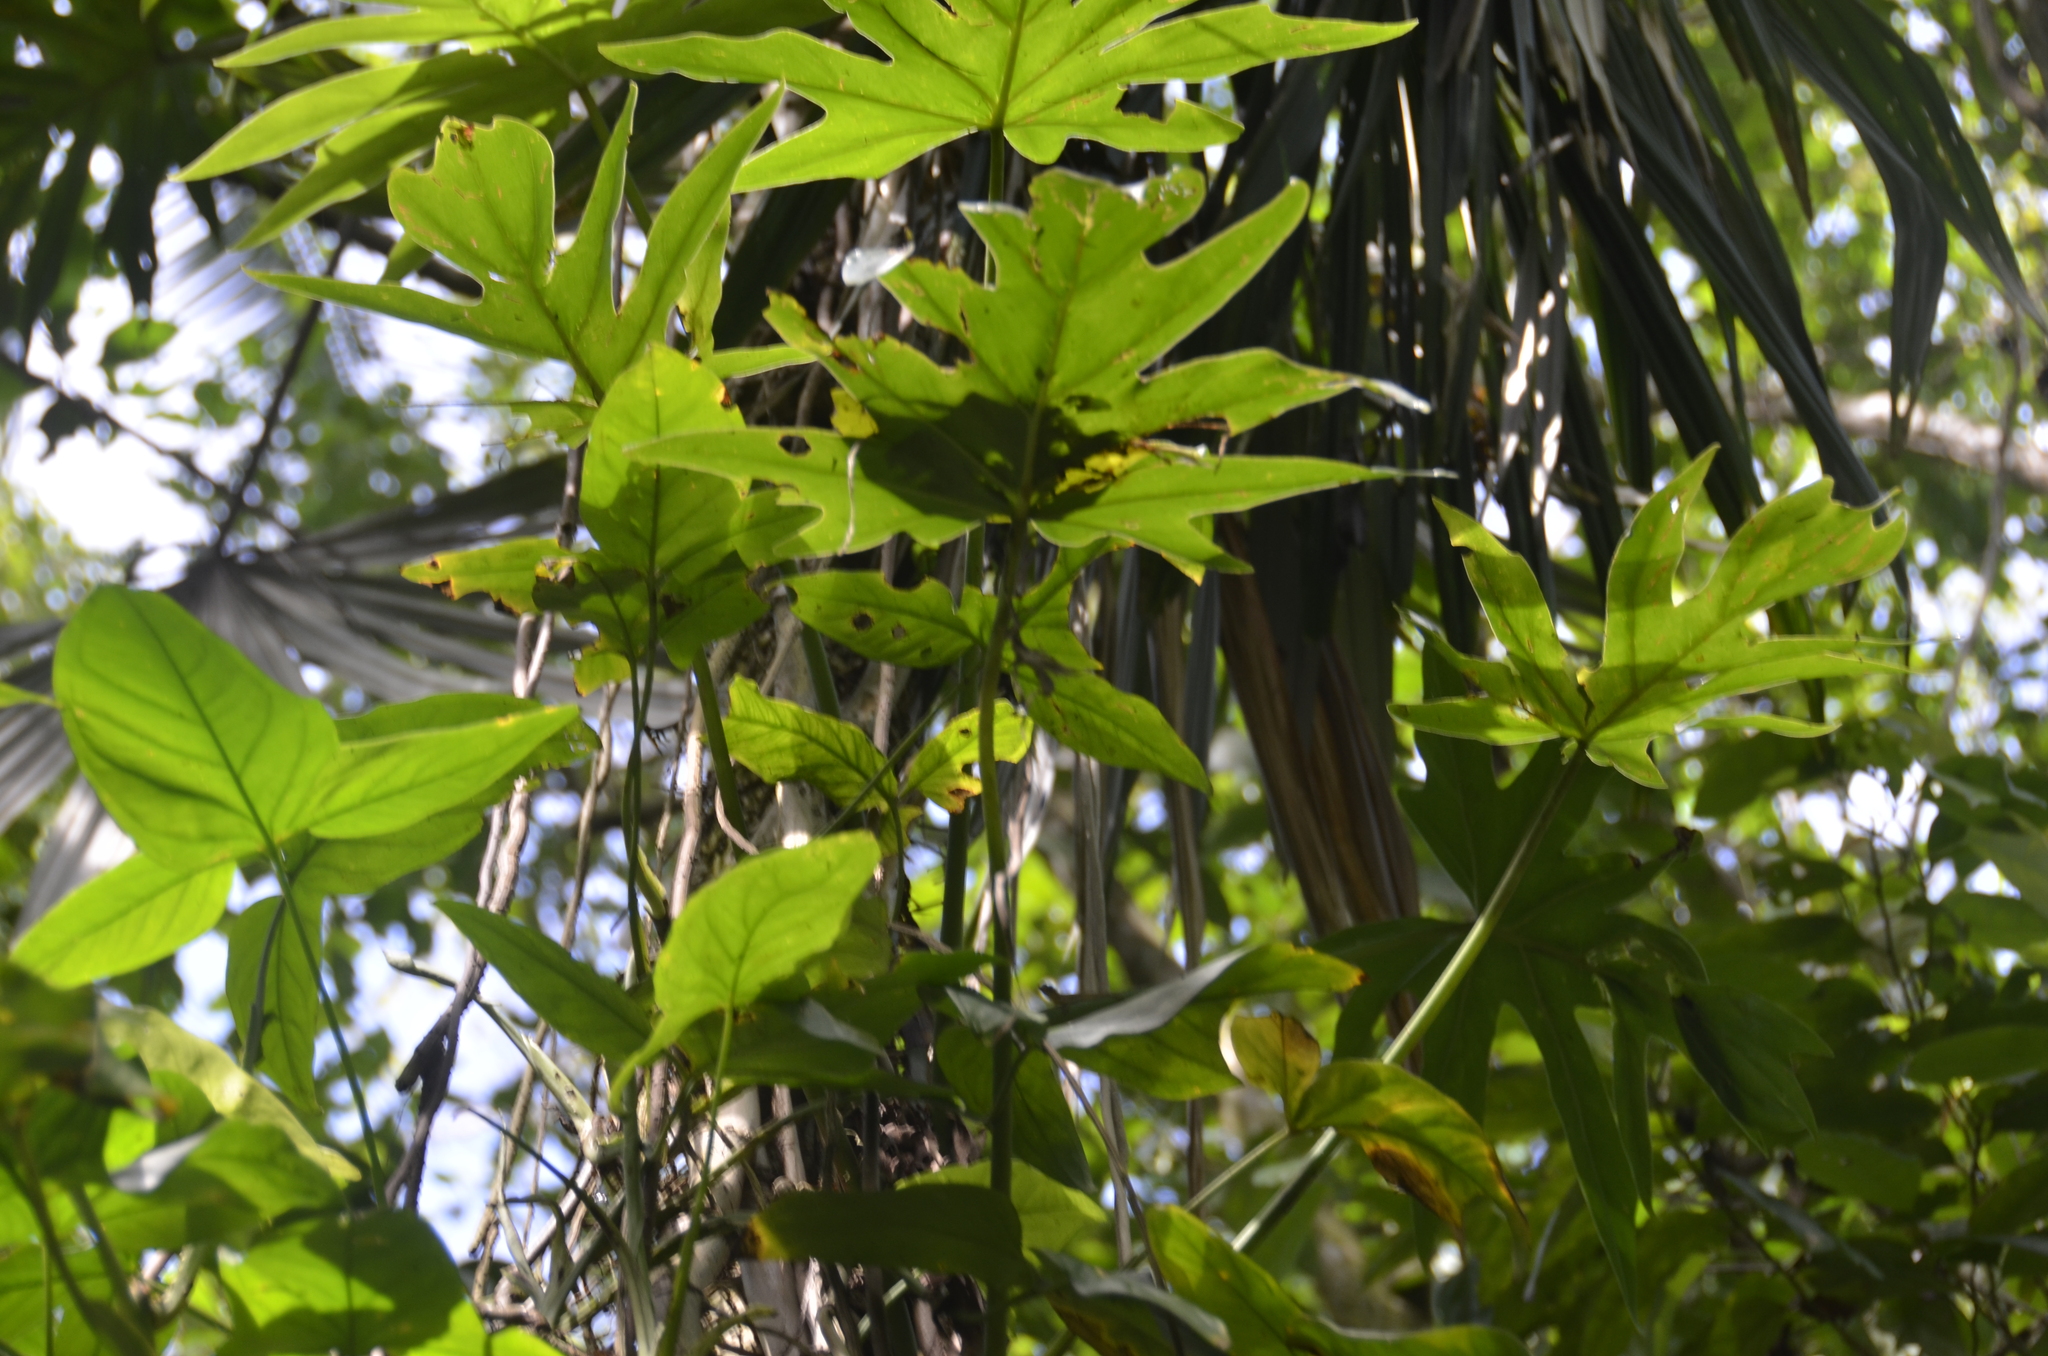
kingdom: Plantae
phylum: Tracheophyta
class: Liliopsida
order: Alismatales
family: Araceae
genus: Philodendron
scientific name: Philodendron radiatum
